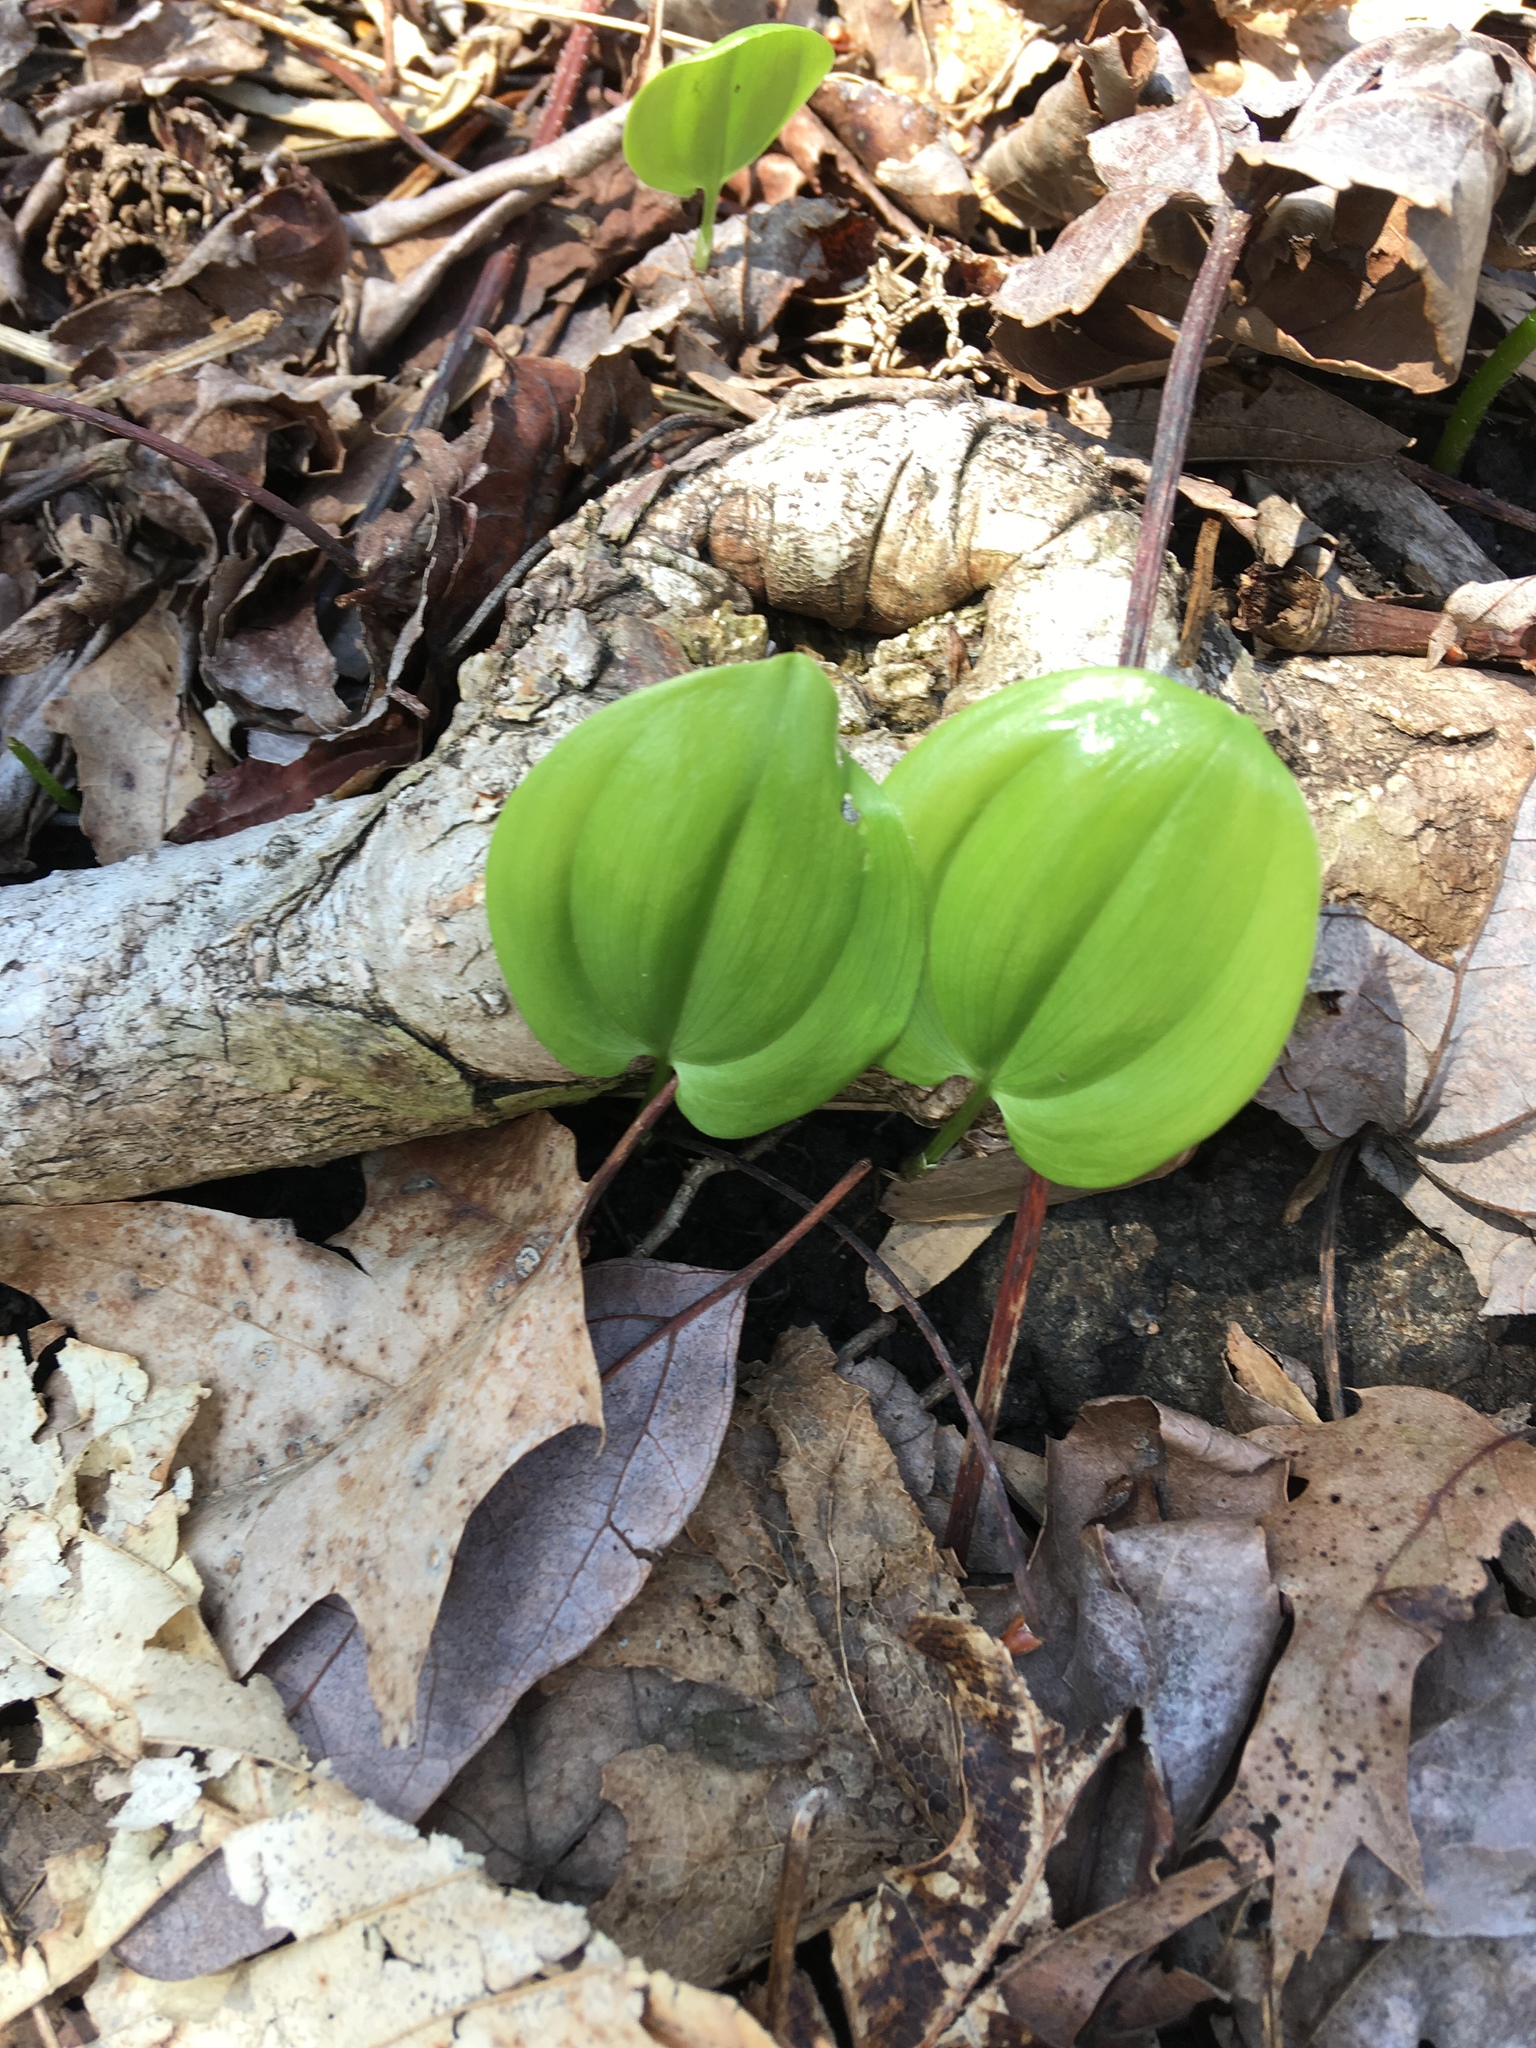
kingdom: Plantae
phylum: Tracheophyta
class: Liliopsida
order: Asparagales
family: Asparagaceae
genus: Maianthemum
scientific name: Maianthemum canadense
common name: False lily-of-the-valley
